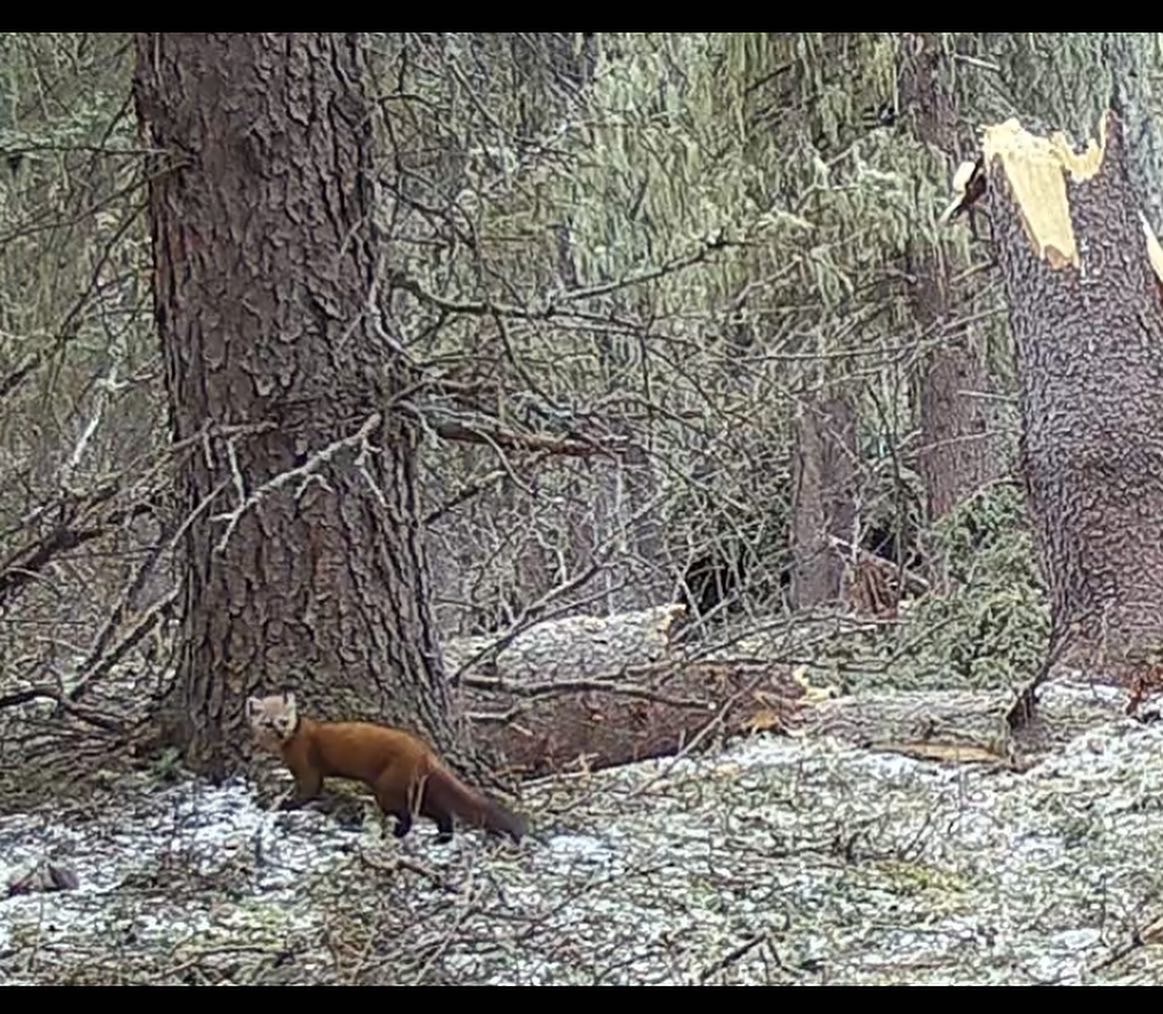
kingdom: Animalia
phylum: Chordata
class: Mammalia
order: Carnivora
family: Mustelidae
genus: Martes
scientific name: Martes americana
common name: American marten
